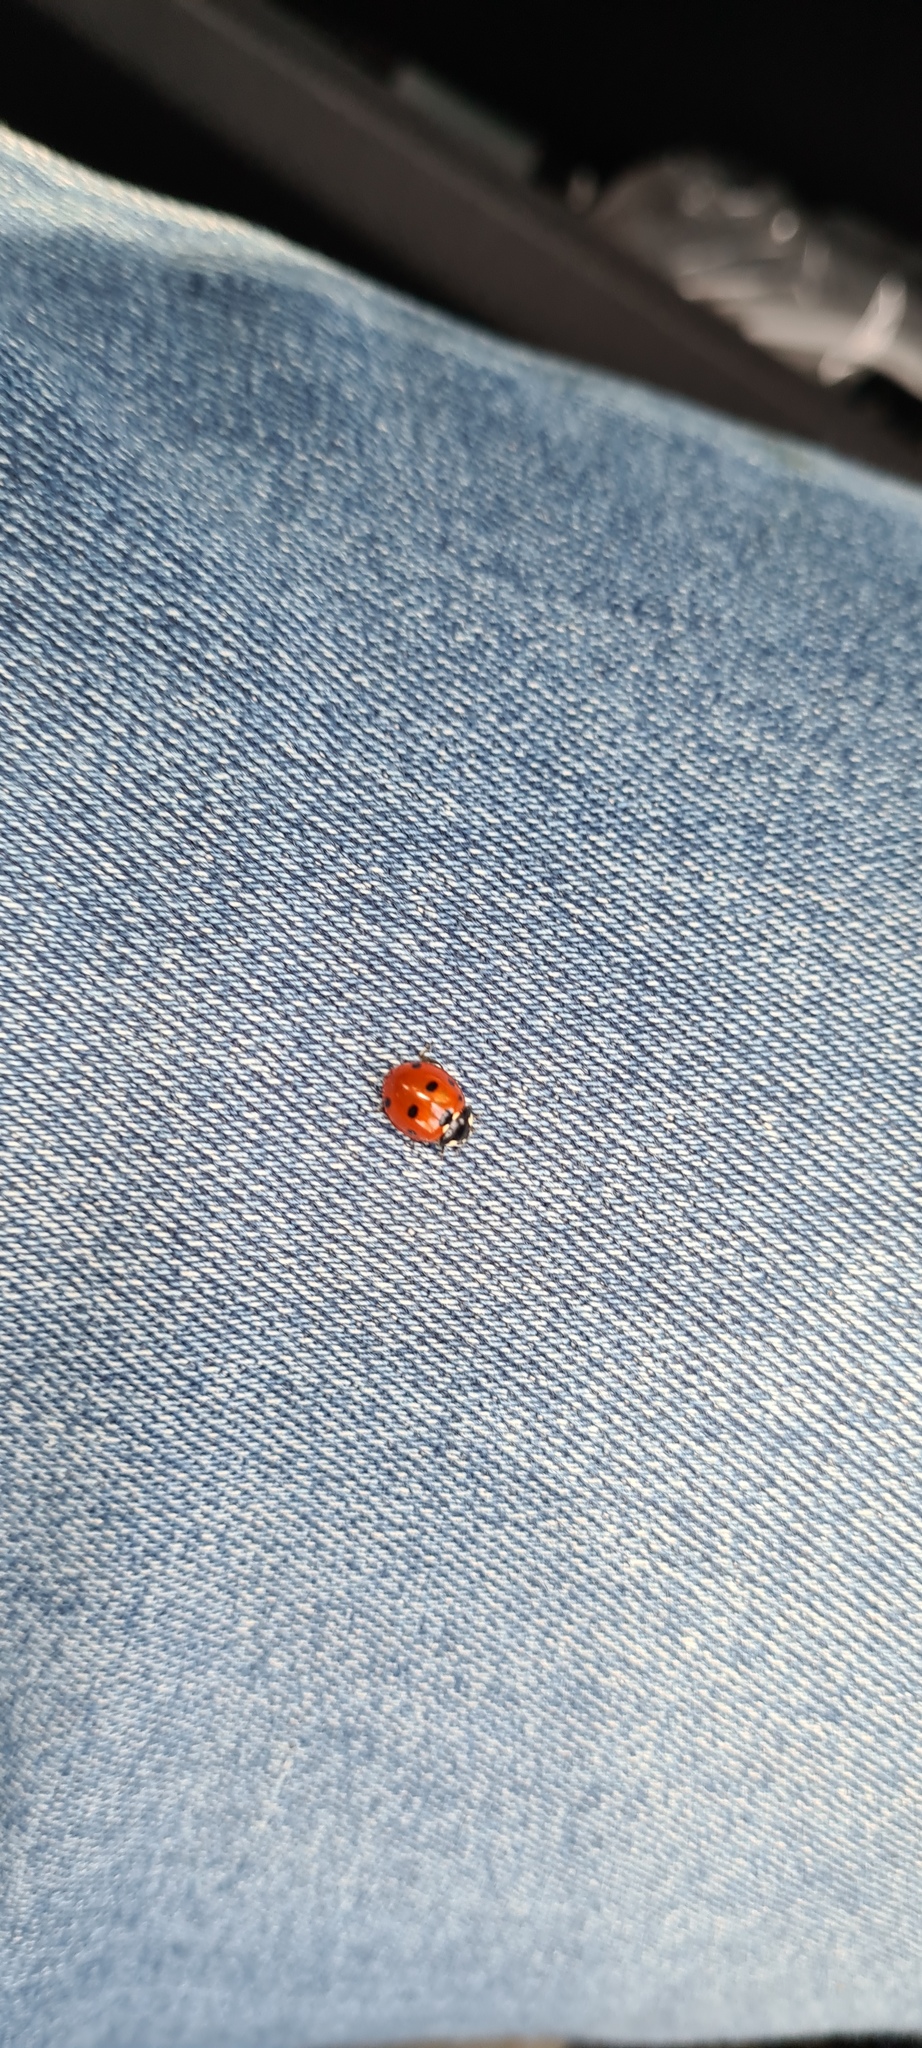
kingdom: Animalia
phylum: Arthropoda
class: Insecta
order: Coleoptera
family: Coccinellidae
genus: Coccinella
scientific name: Coccinella septempunctata
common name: Sevenspotted lady beetle
